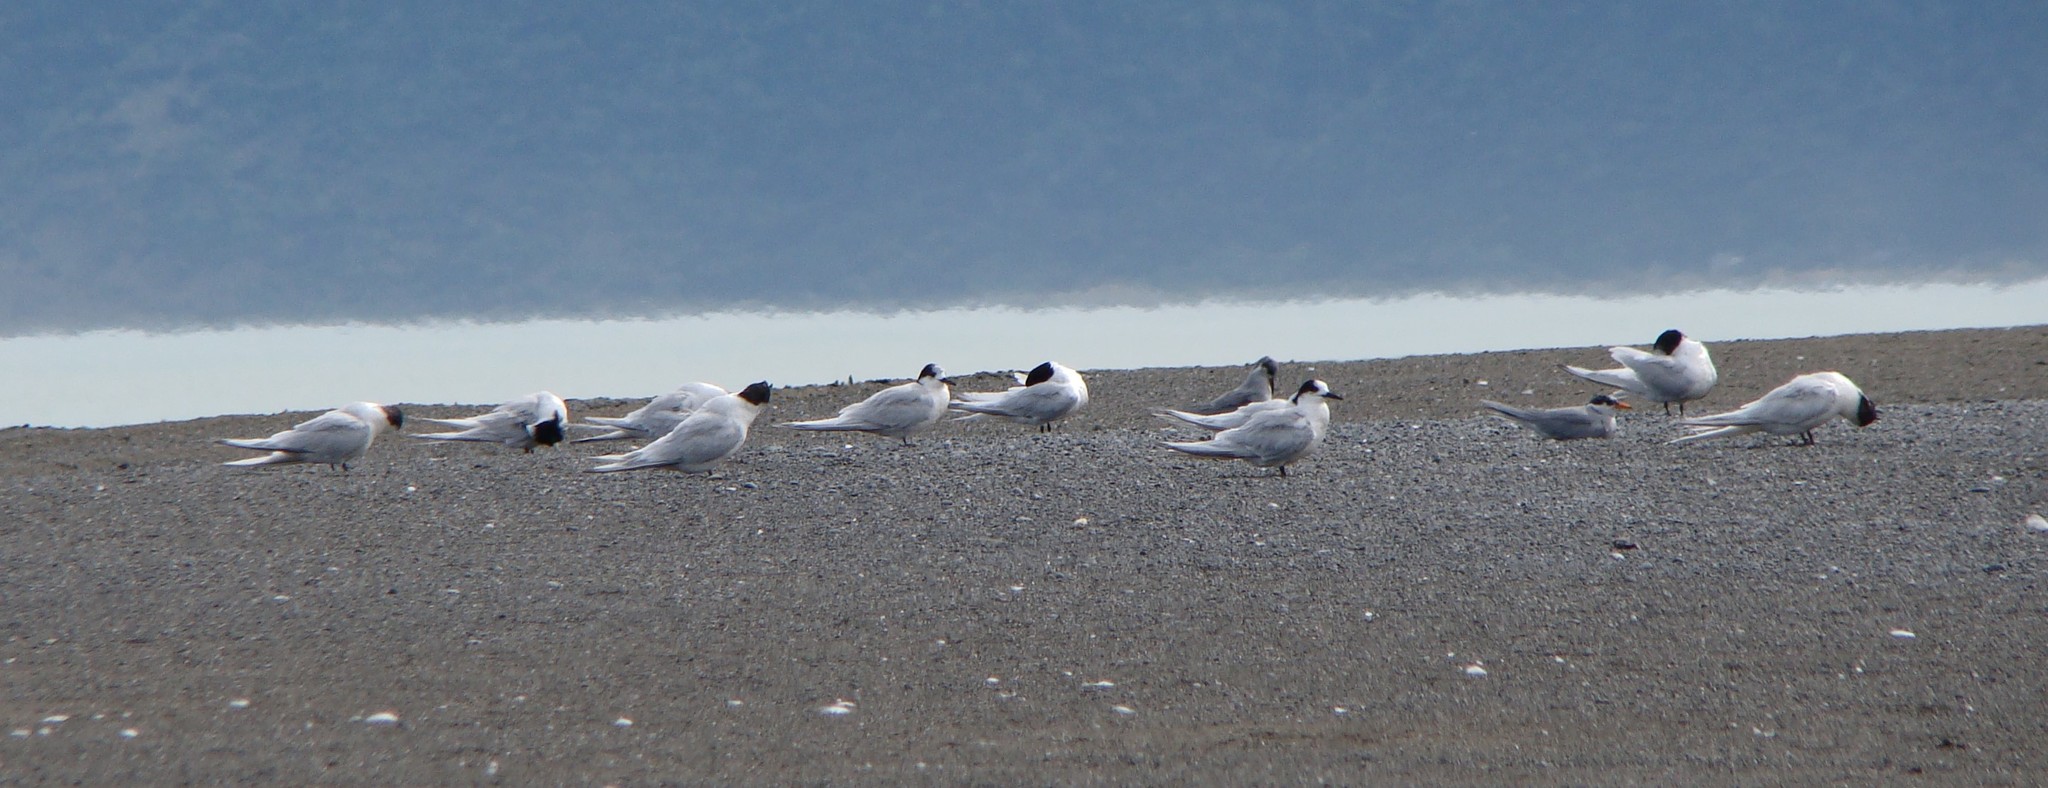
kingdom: Animalia
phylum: Chordata
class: Aves
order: Charadriiformes
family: Laridae
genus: Chlidonias
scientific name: Chlidonias albostriatus
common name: Black-fronted tern
